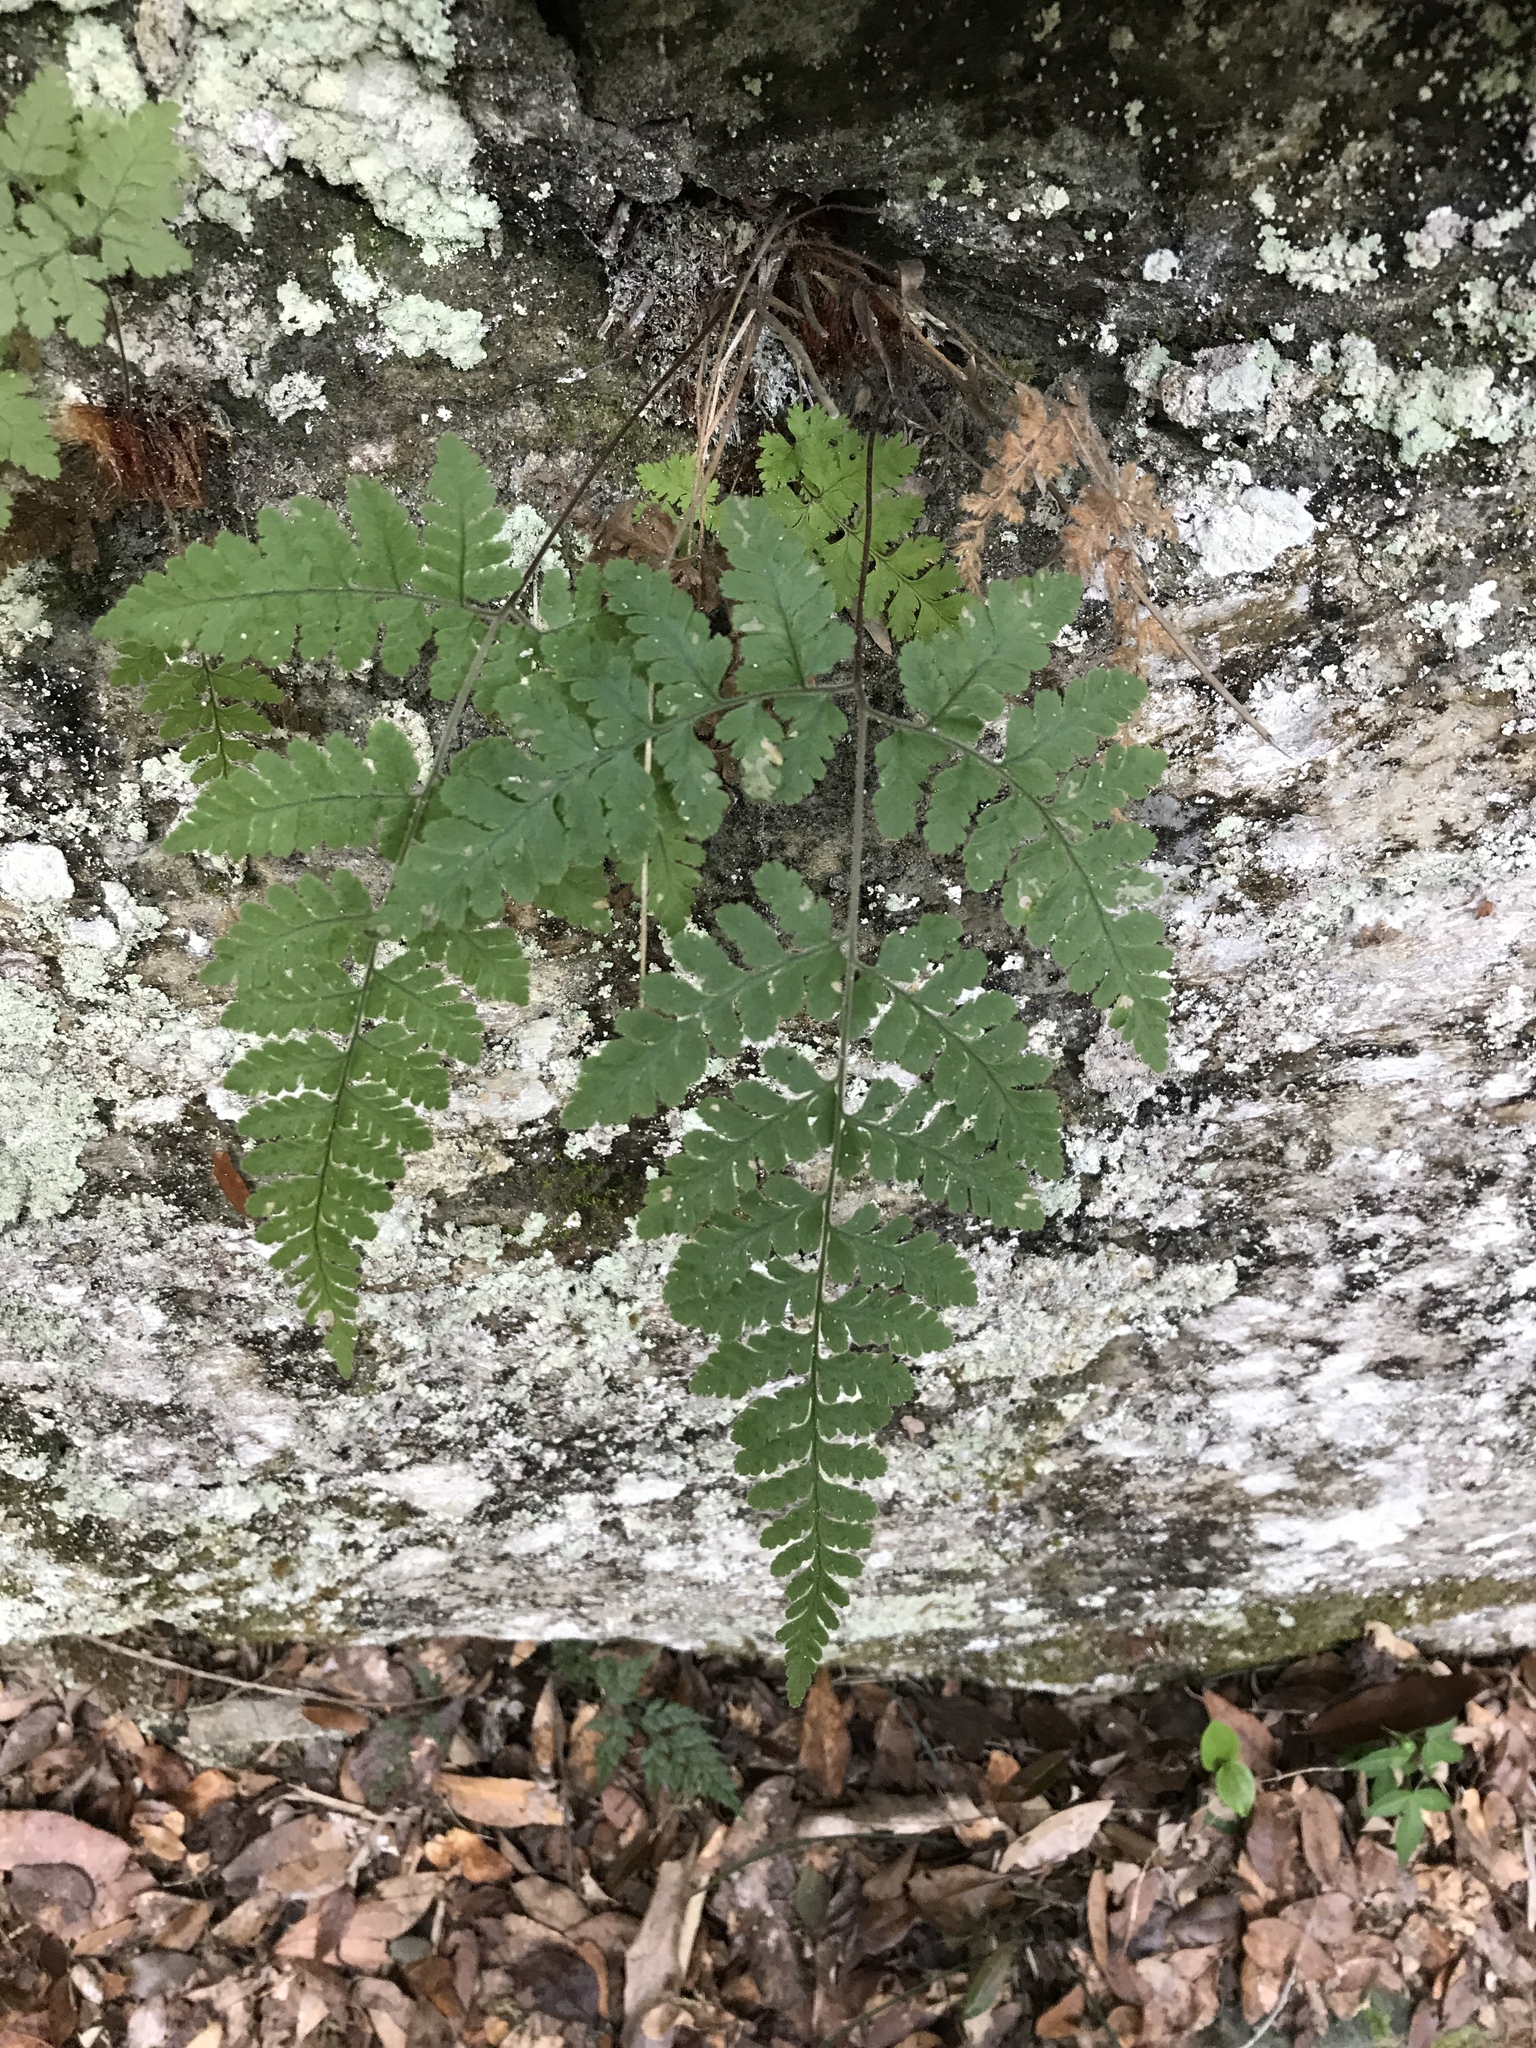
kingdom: Plantae
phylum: Tracheophyta
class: Polypodiopsida
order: Polypodiales
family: Hypodematiaceae
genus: Hypodematium
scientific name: Hypodematium shingii
